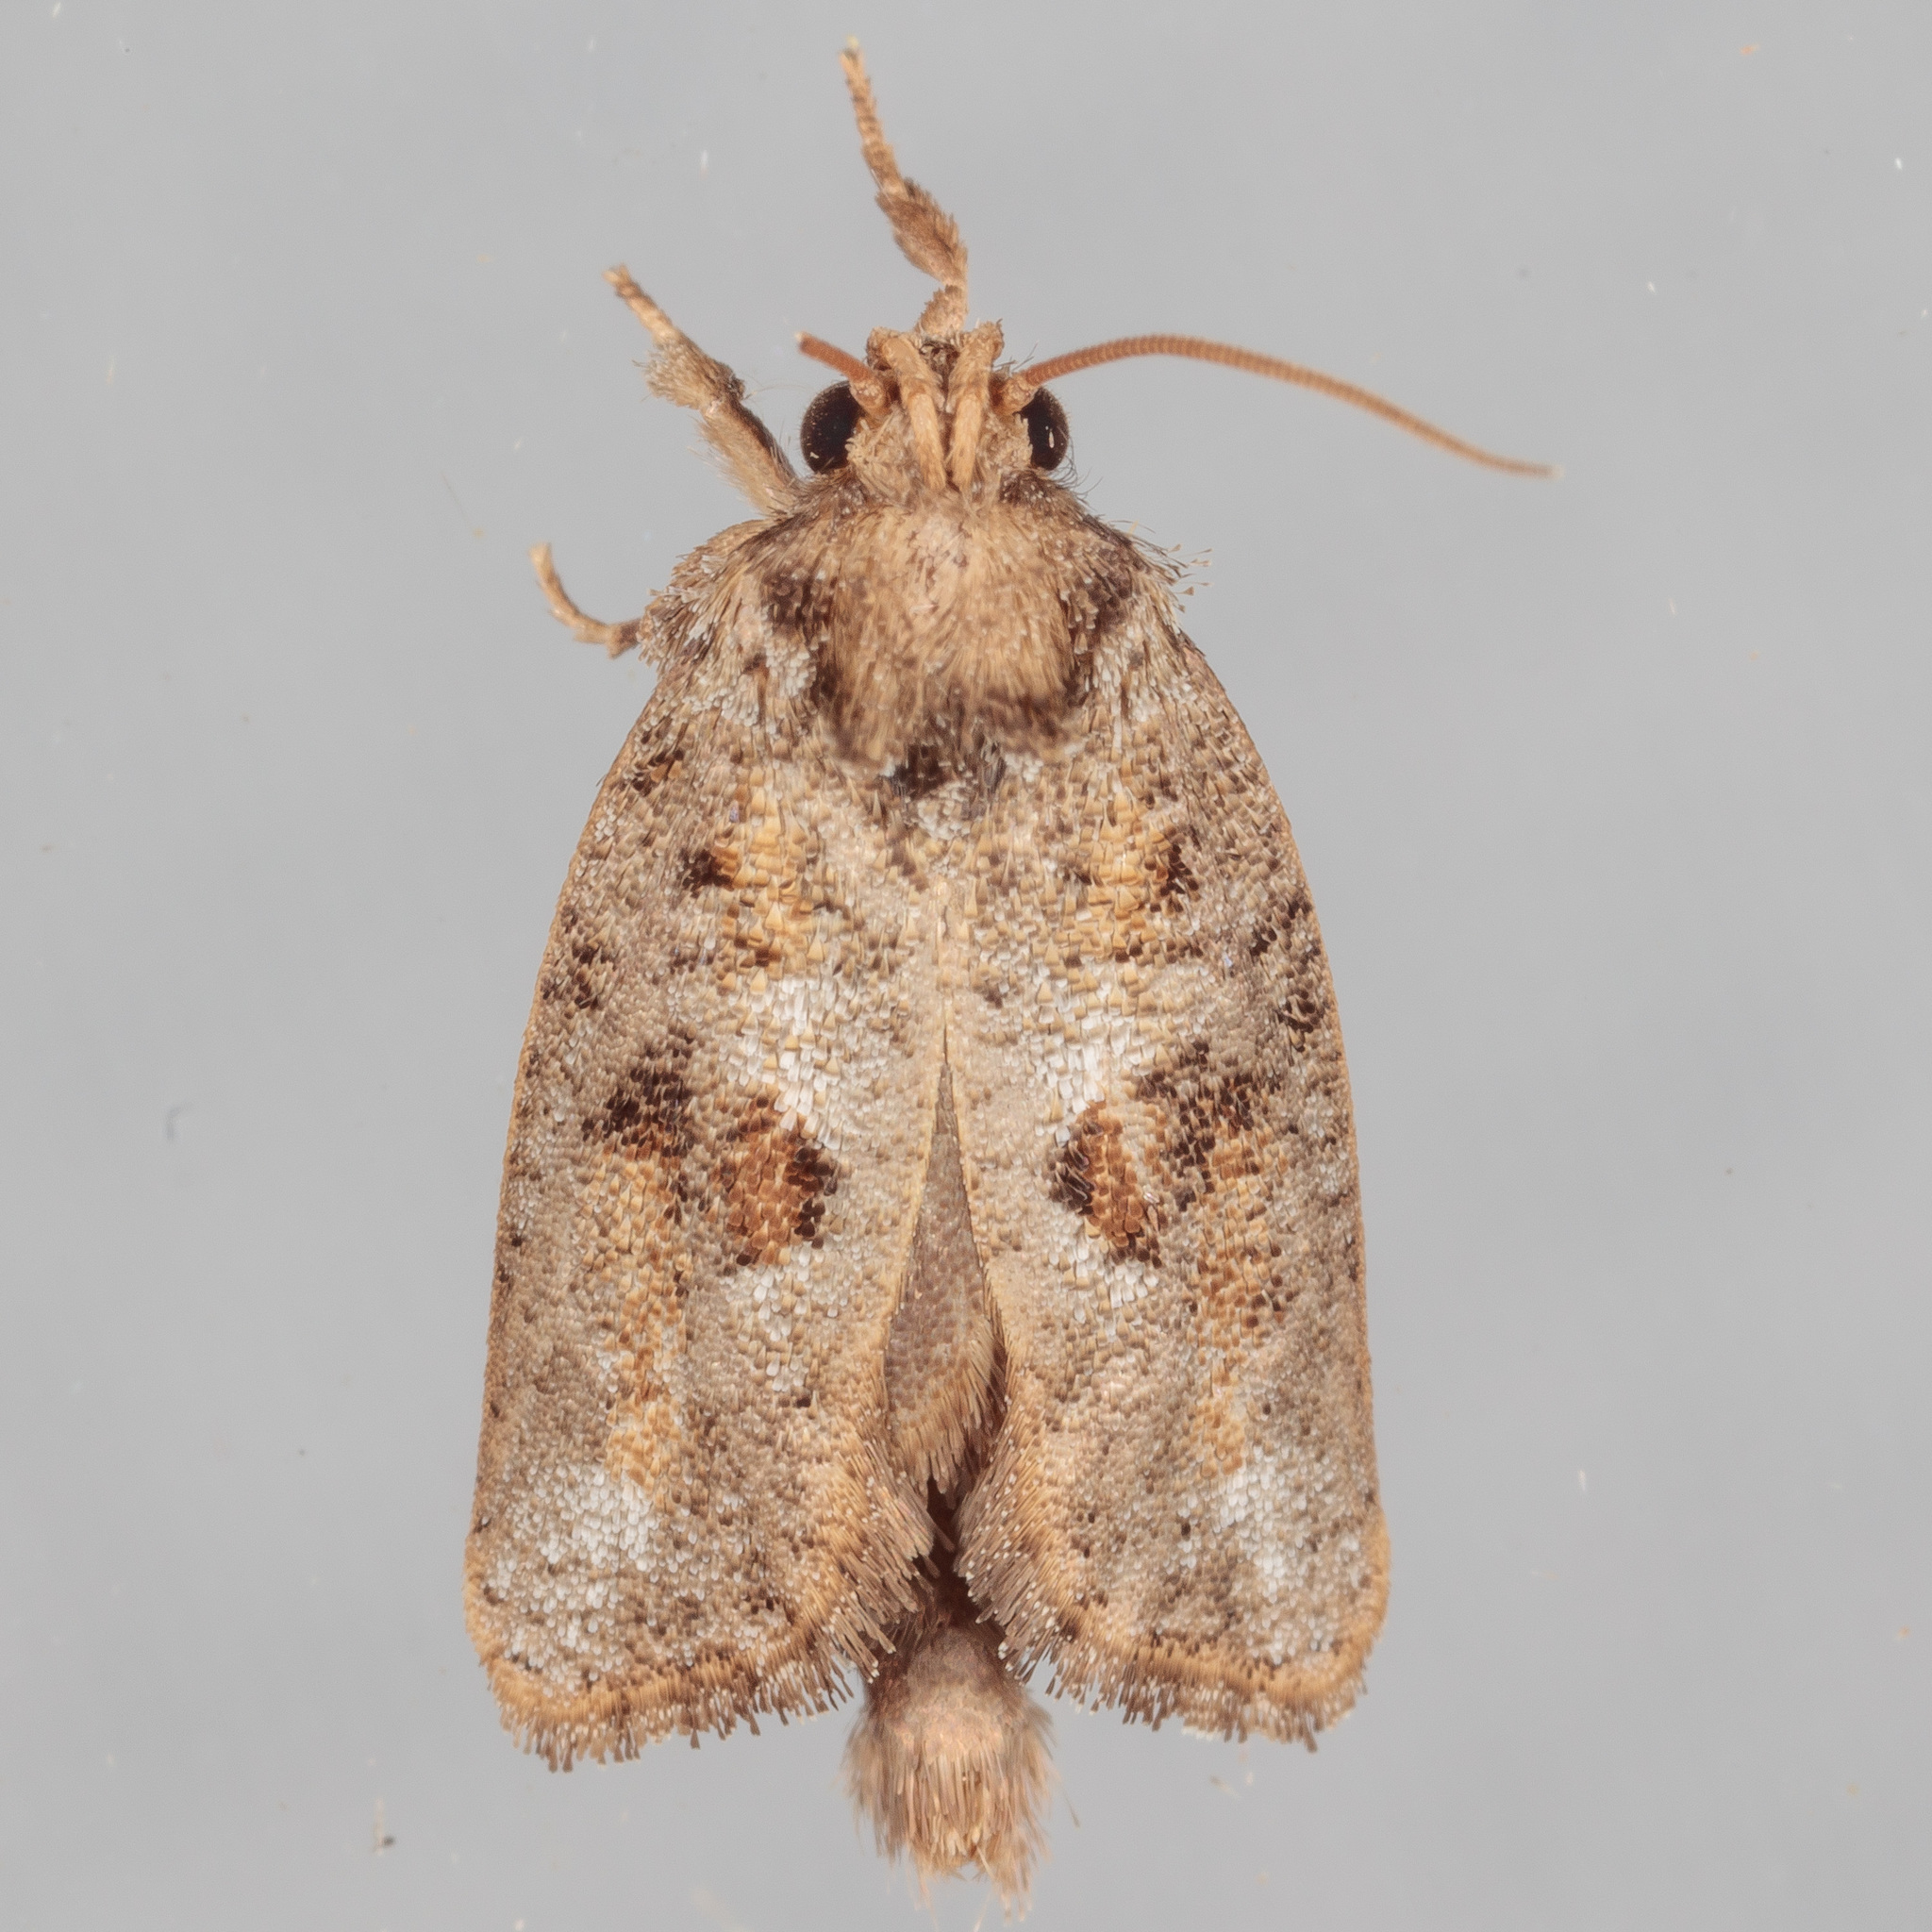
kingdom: Animalia
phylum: Arthropoda
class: Insecta
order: Lepidoptera
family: Tineidae
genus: Acrolophus
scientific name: Acrolophus piger
